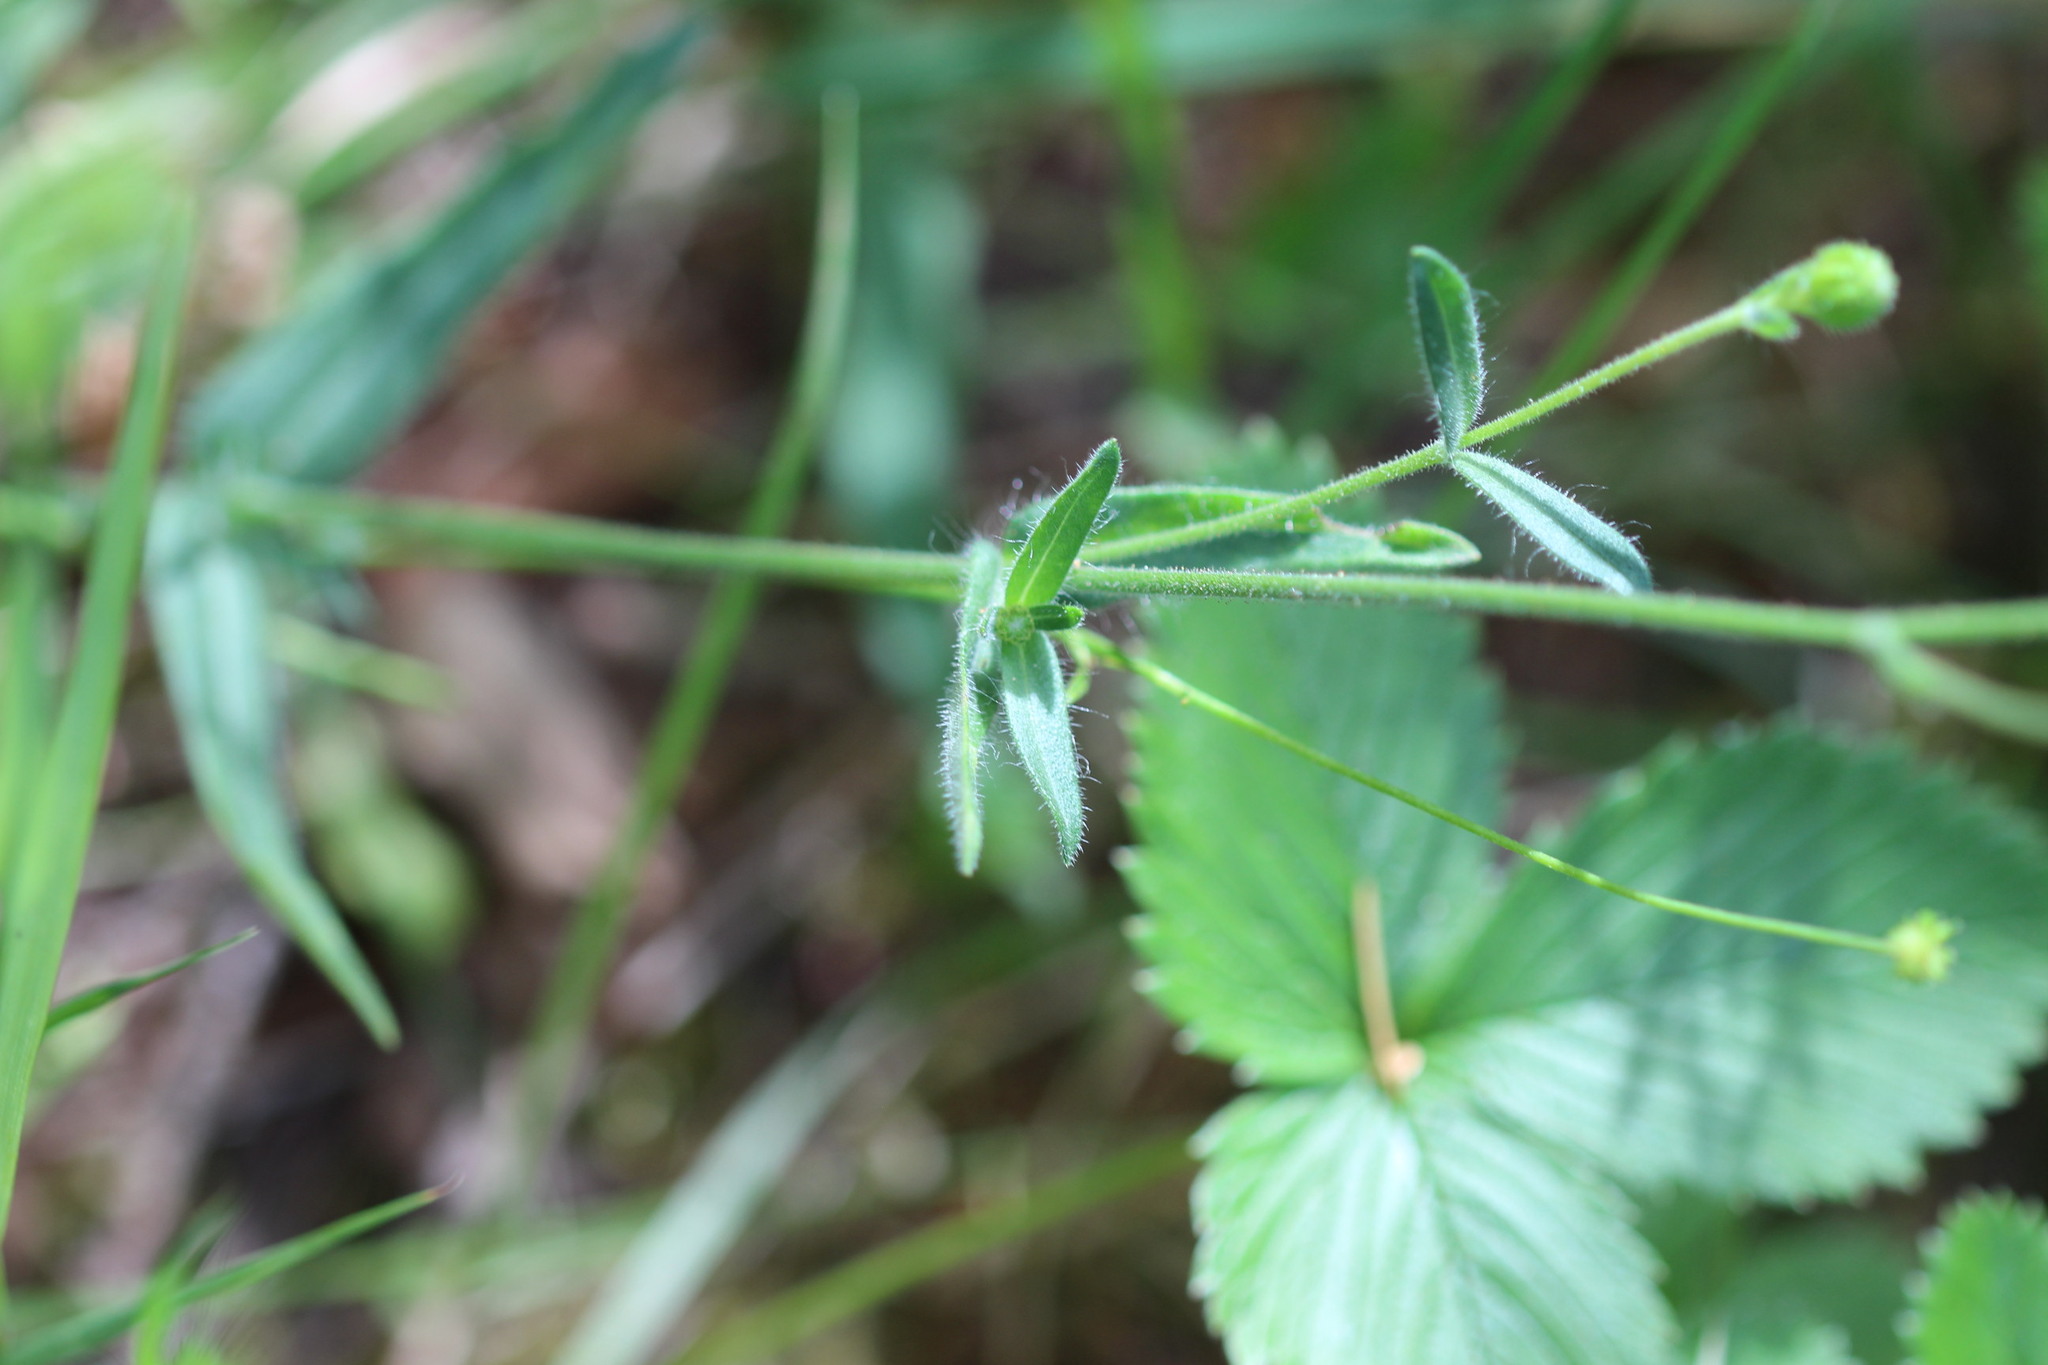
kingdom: Plantae
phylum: Tracheophyta
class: Magnoliopsida
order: Asterales
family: Asteraceae
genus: Anisocarpus
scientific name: Anisocarpus madioides
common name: Woodland madia
